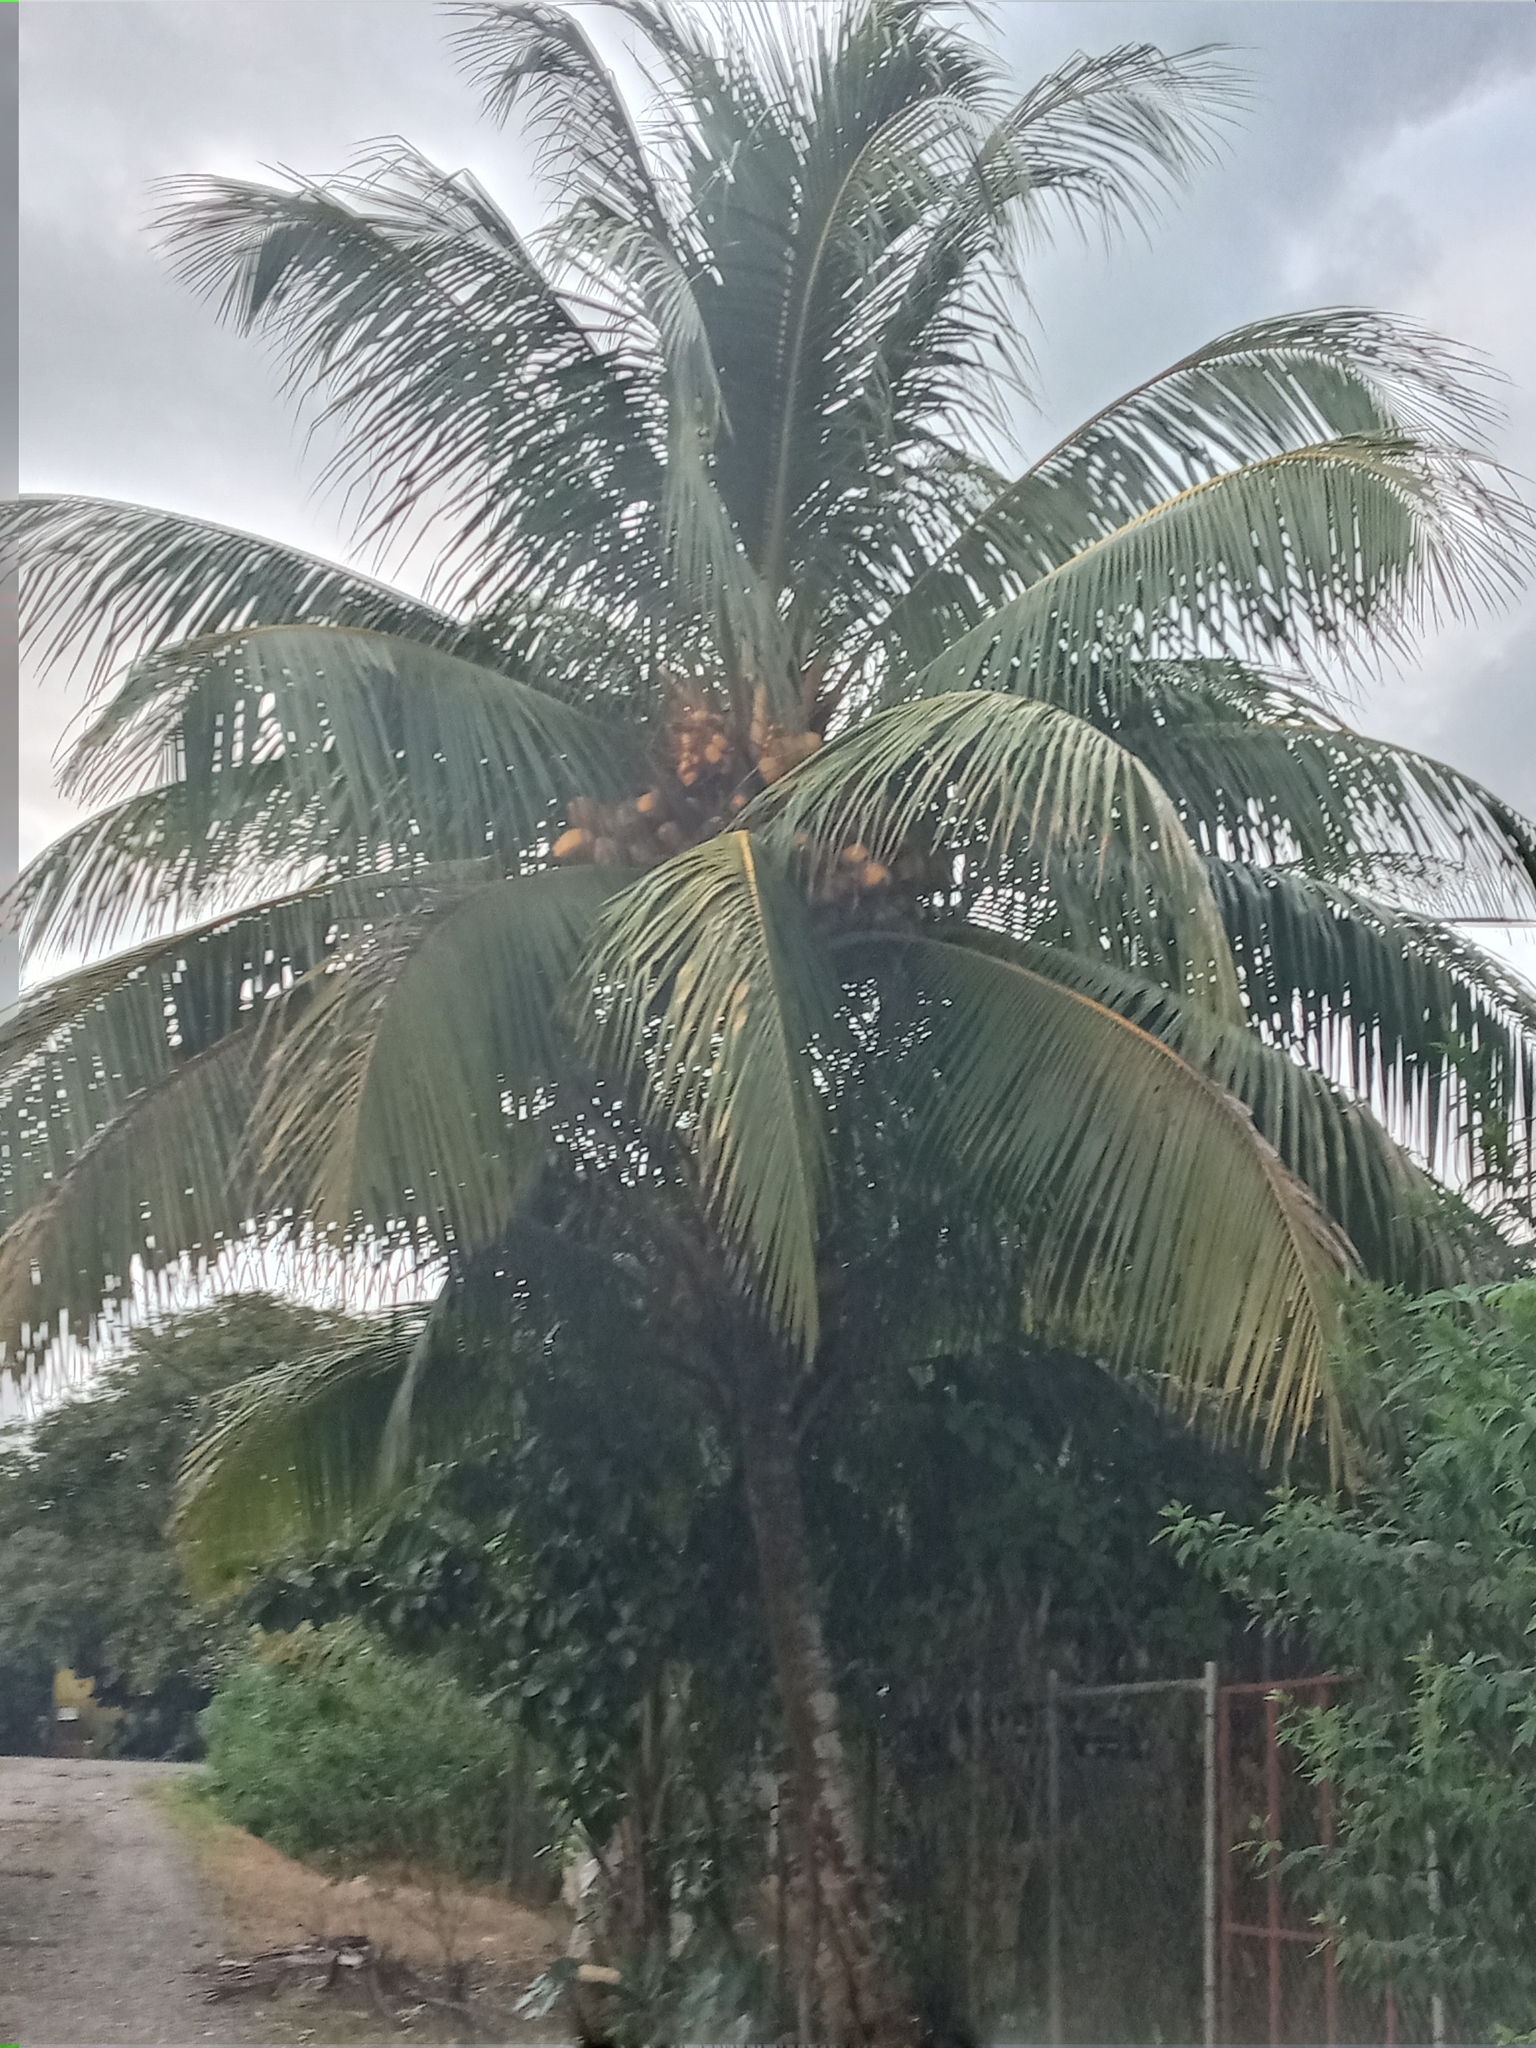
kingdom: Plantae
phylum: Tracheophyta
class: Liliopsida
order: Arecales
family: Arecaceae
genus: Cocos
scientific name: Cocos nucifera
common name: Coconut palm
